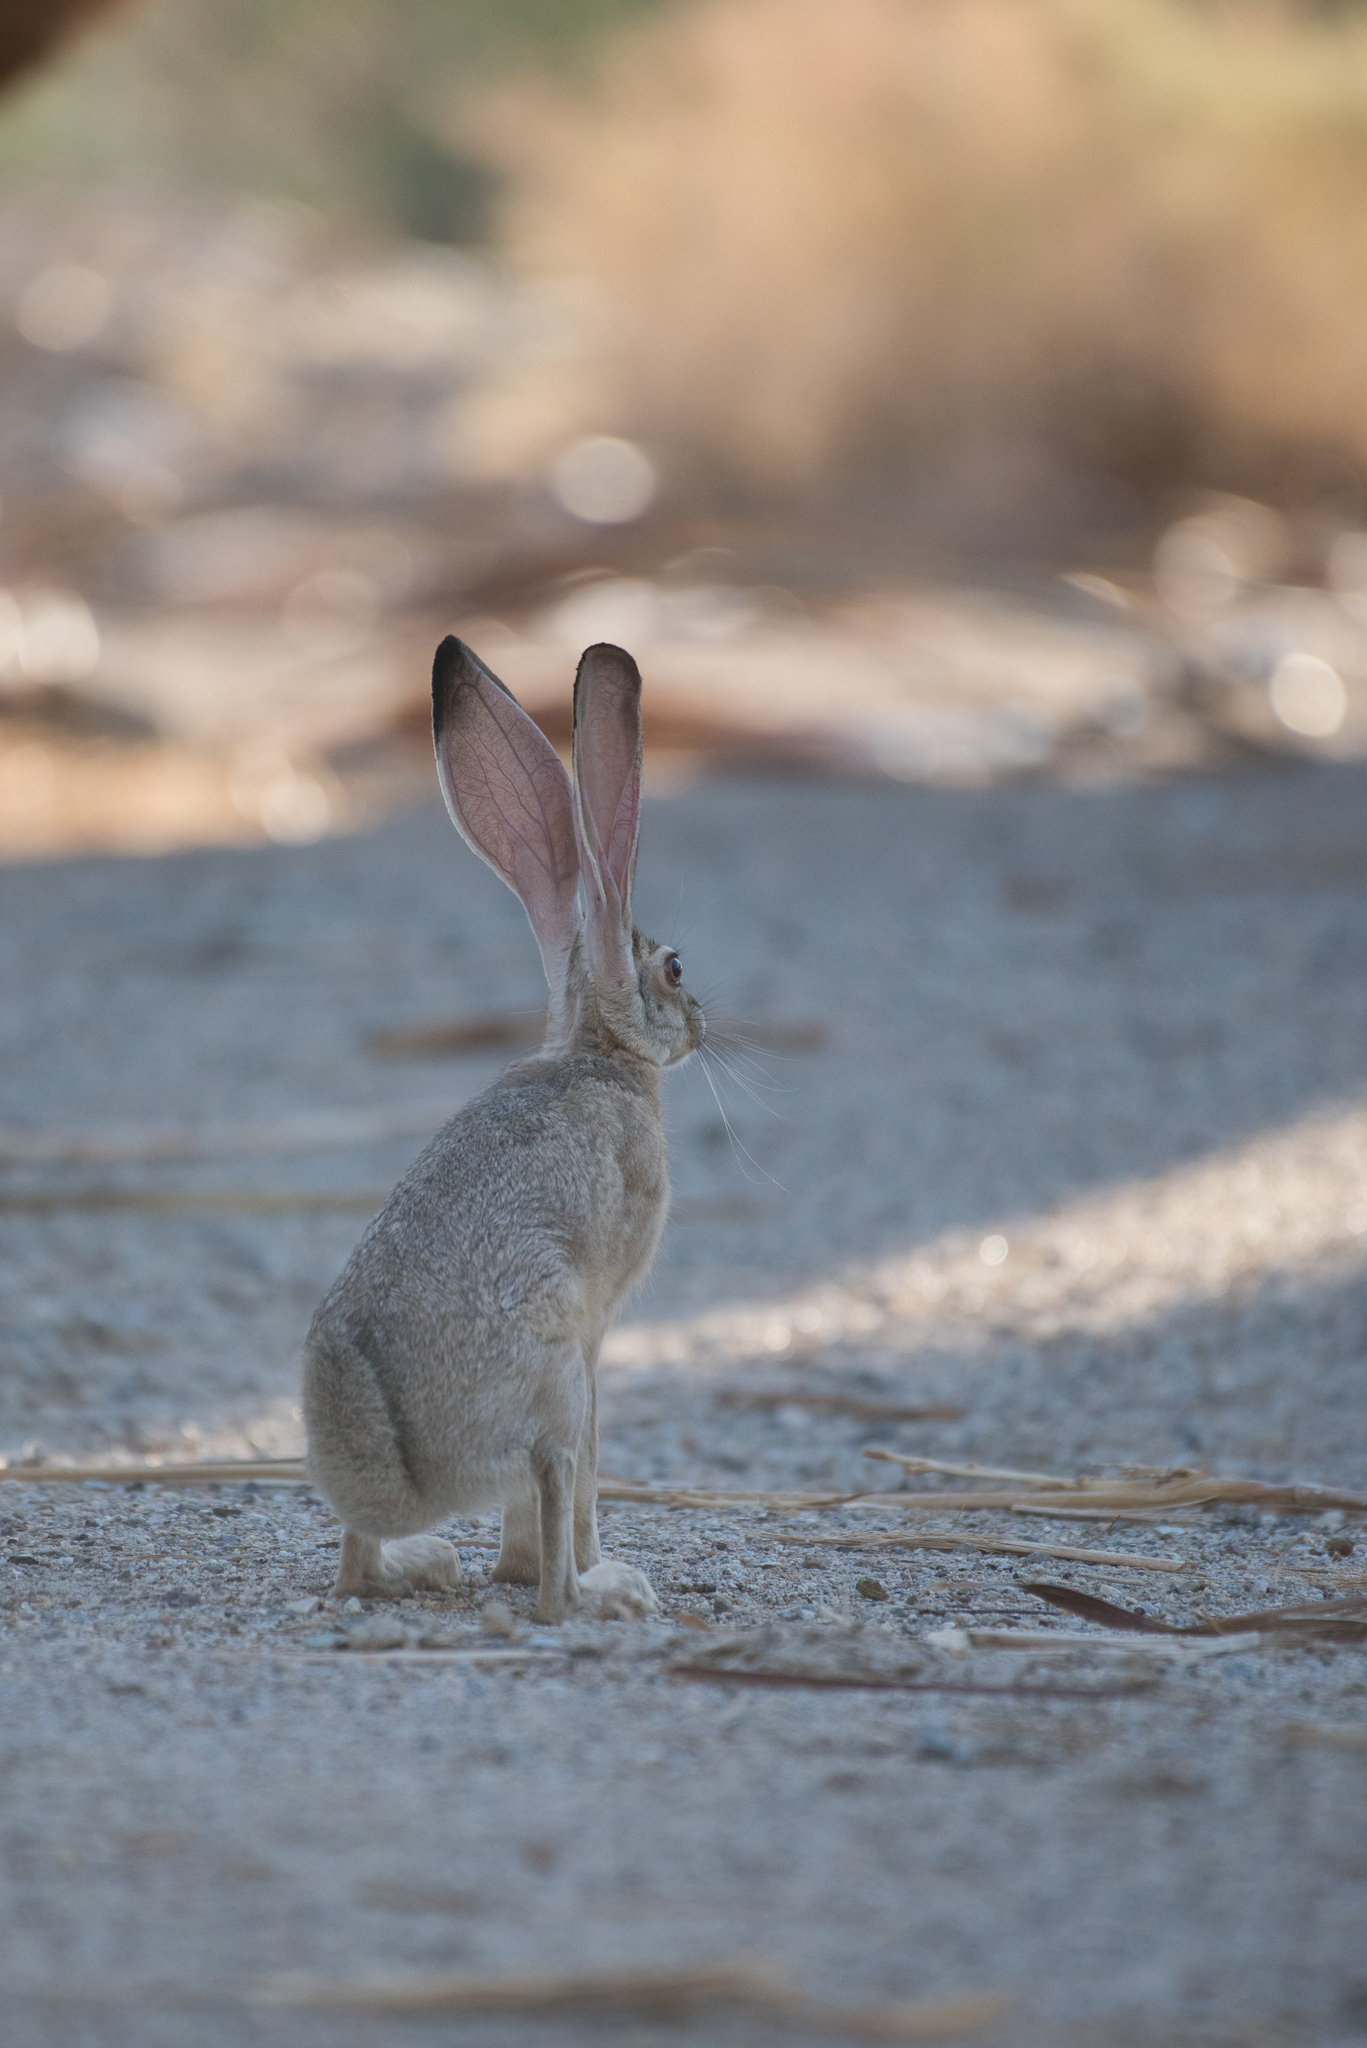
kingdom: Animalia
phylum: Chordata
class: Mammalia
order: Lagomorpha
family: Leporidae
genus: Lepus
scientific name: Lepus californicus
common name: Black-tailed jackrabbit
